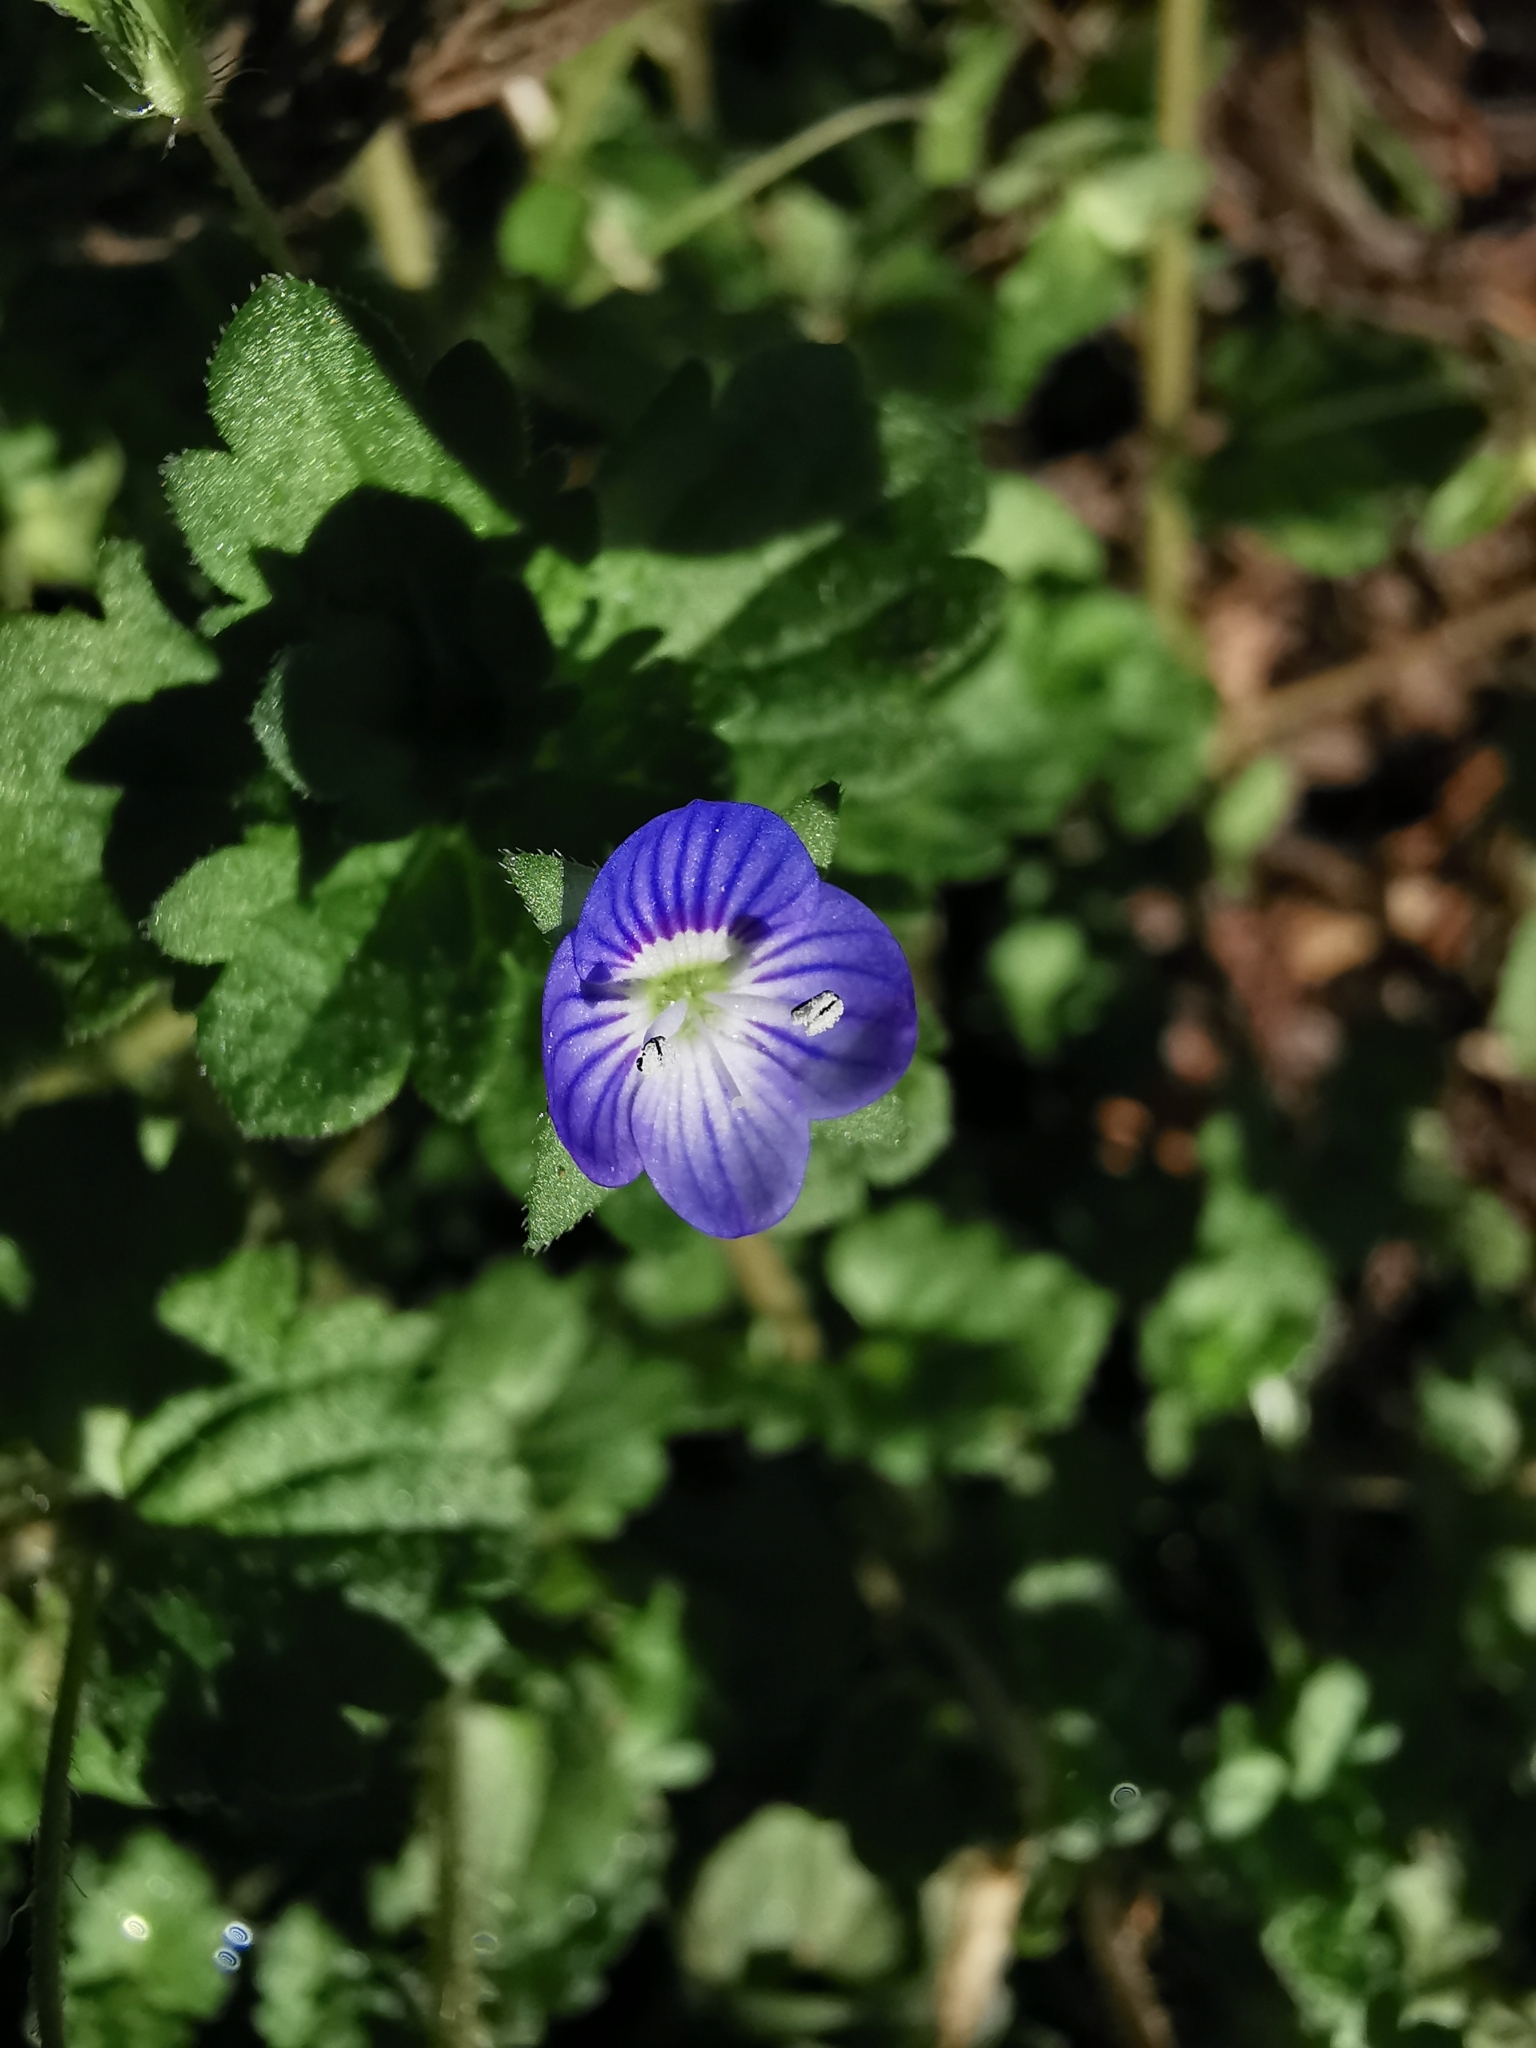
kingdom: Plantae
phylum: Tracheophyta
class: Magnoliopsida
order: Lamiales
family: Plantaginaceae
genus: Veronica
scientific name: Veronica persica
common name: Common field-speedwell
